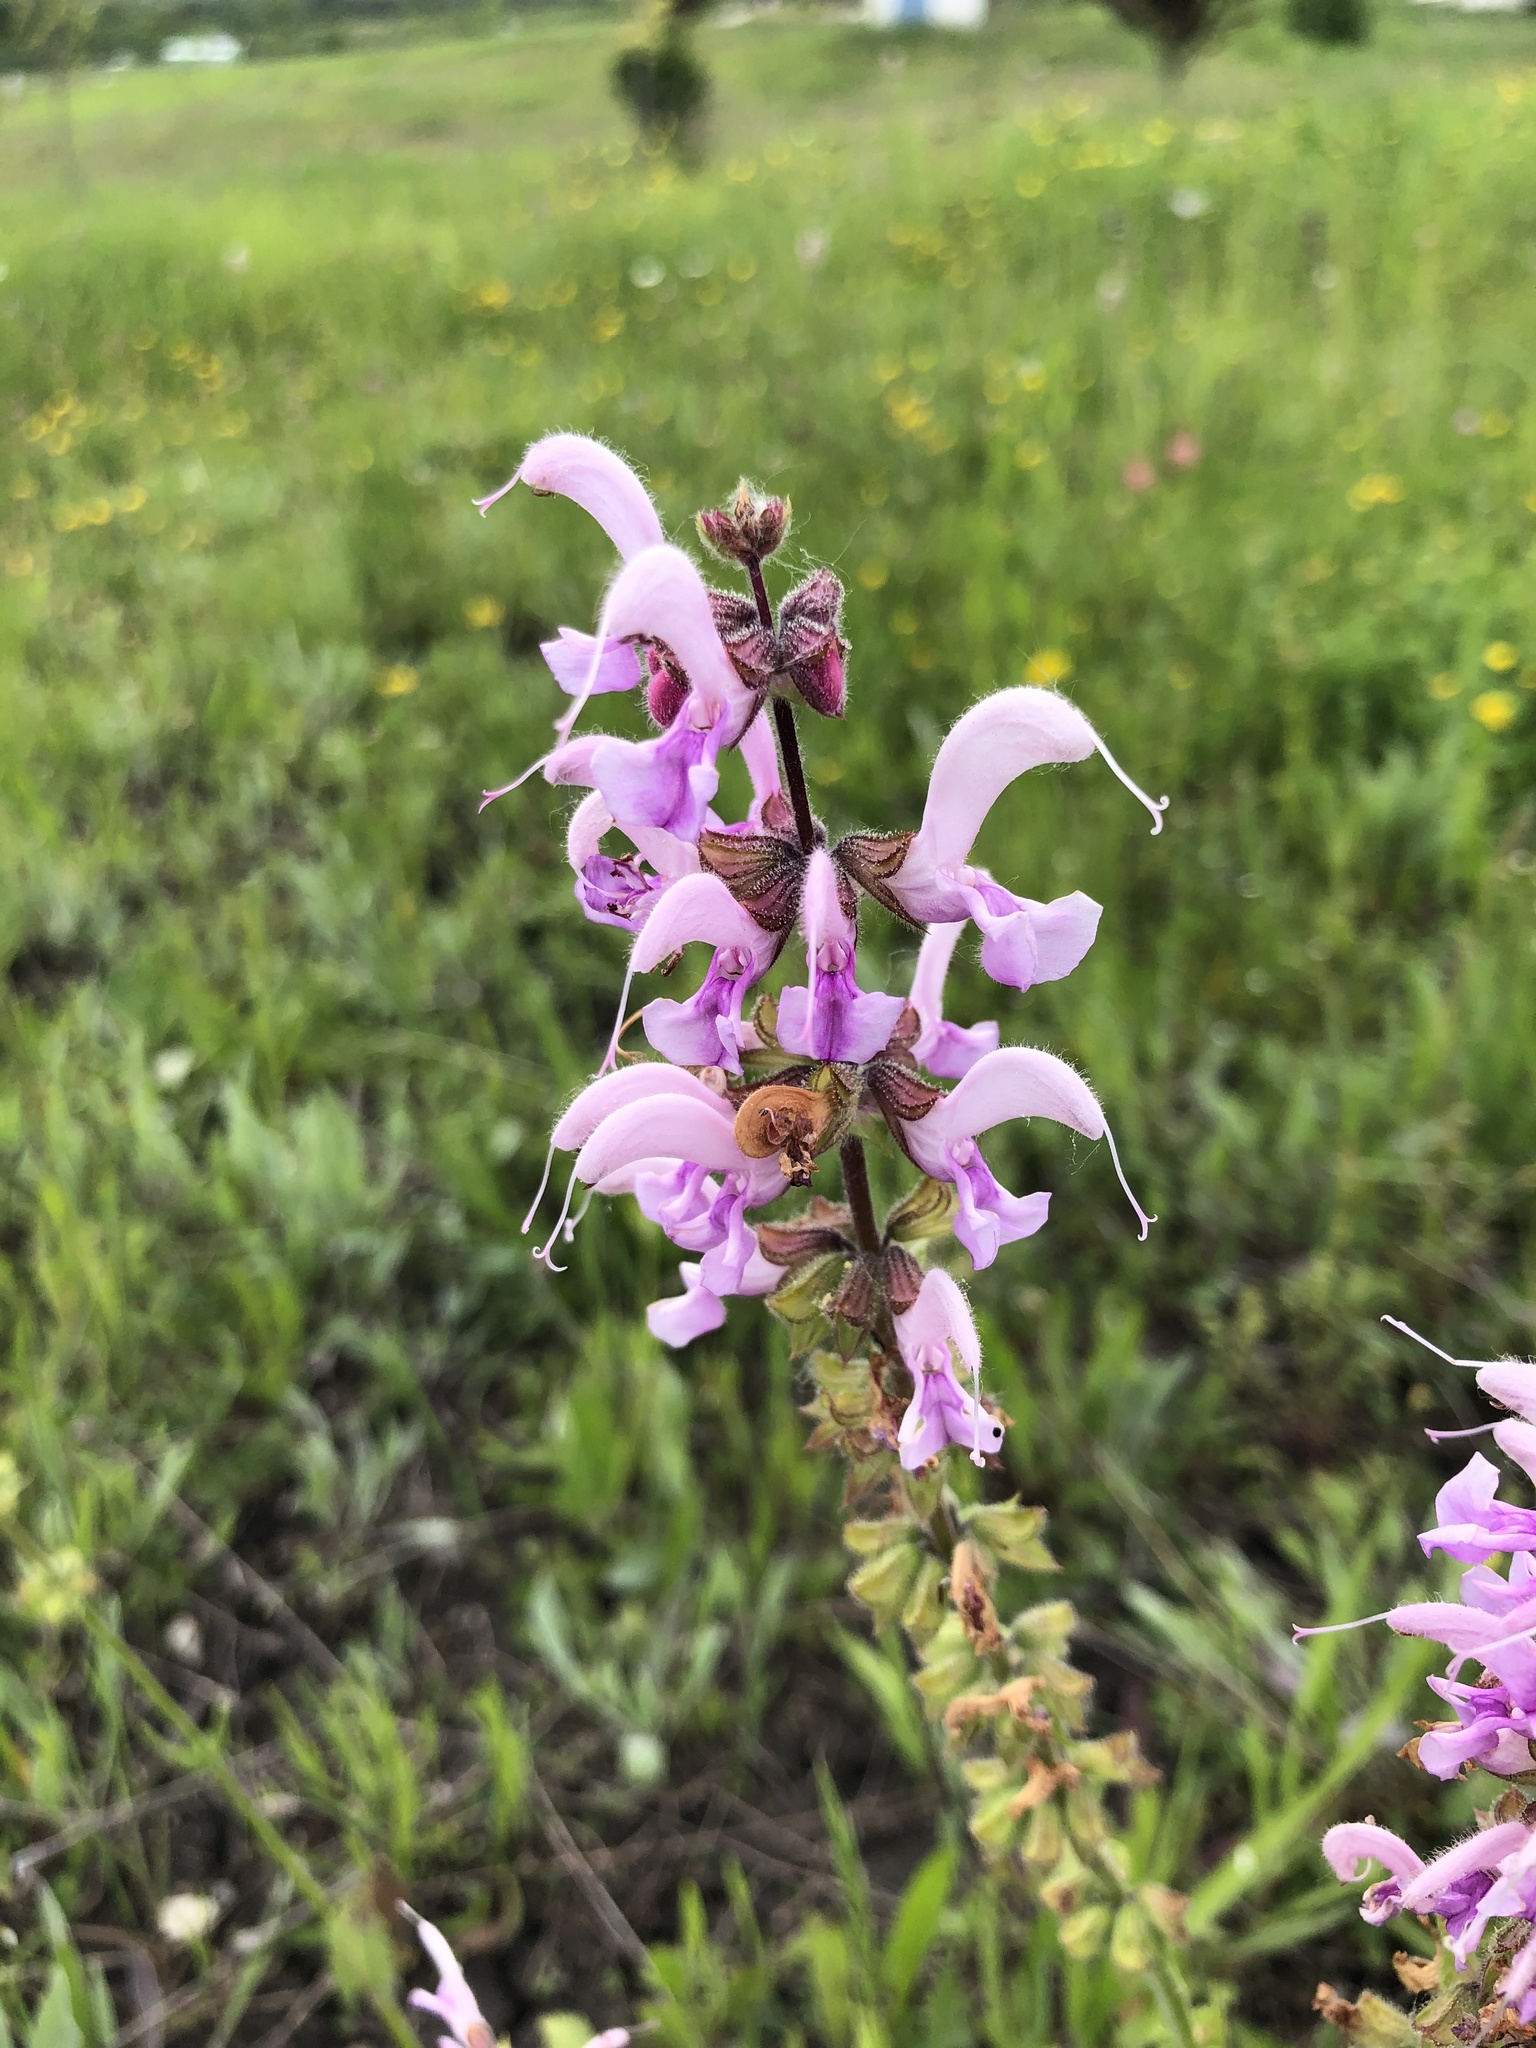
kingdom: Plantae
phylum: Tracheophyta
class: Magnoliopsida
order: Lamiales
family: Lamiaceae
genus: Salvia
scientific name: Salvia pratensis
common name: Meadow sage
